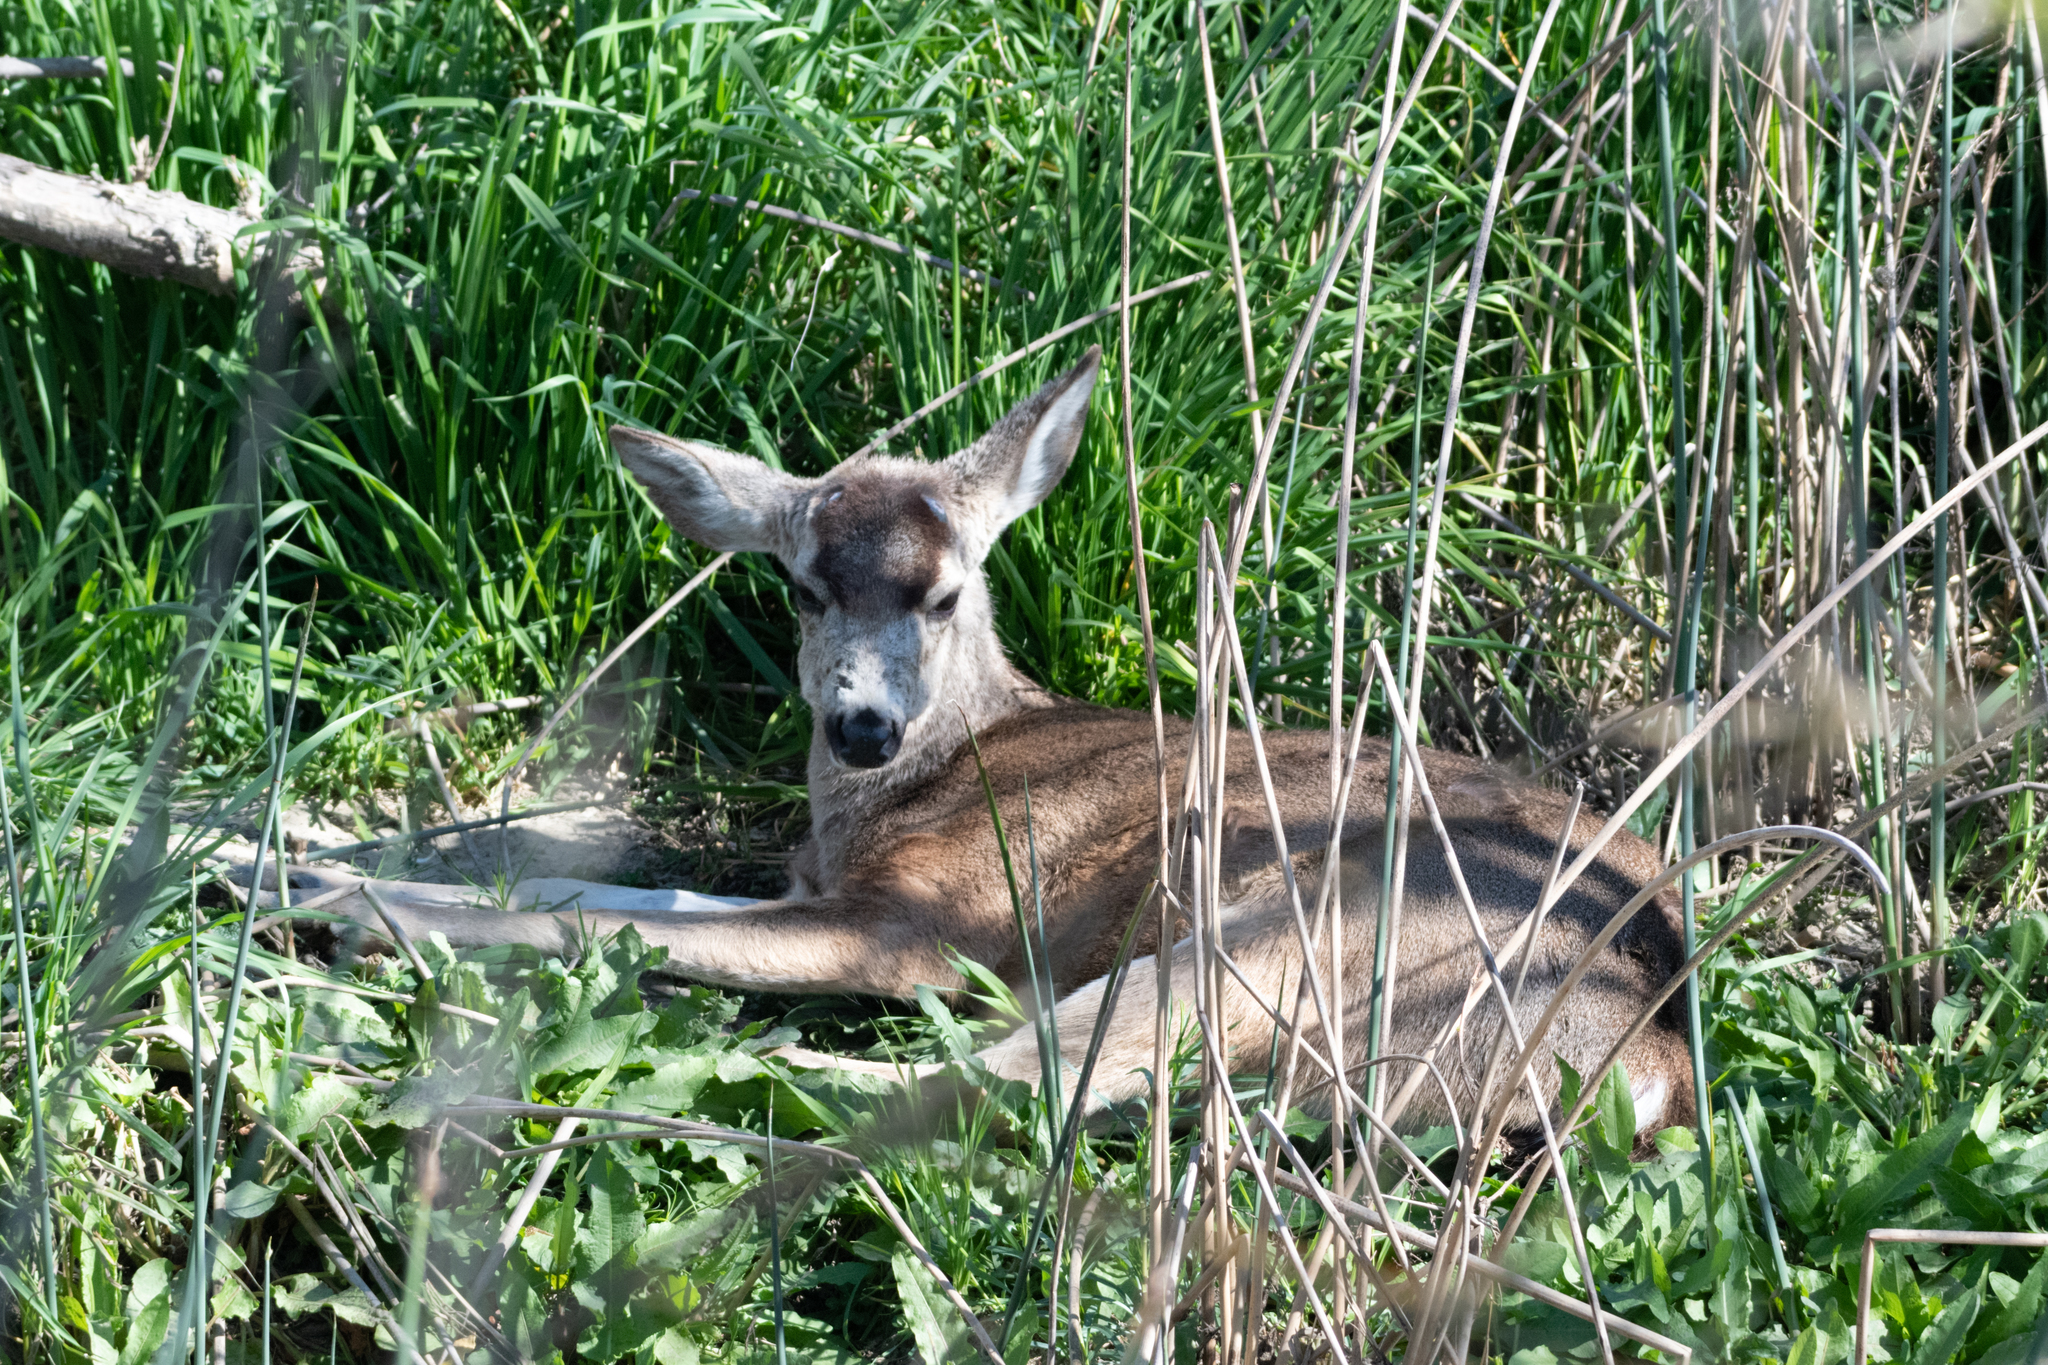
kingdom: Animalia
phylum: Chordata
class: Mammalia
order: Artiodactyla
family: Cervidae
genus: Odocoileus
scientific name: Odocoileus hemionus
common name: Mule deer
